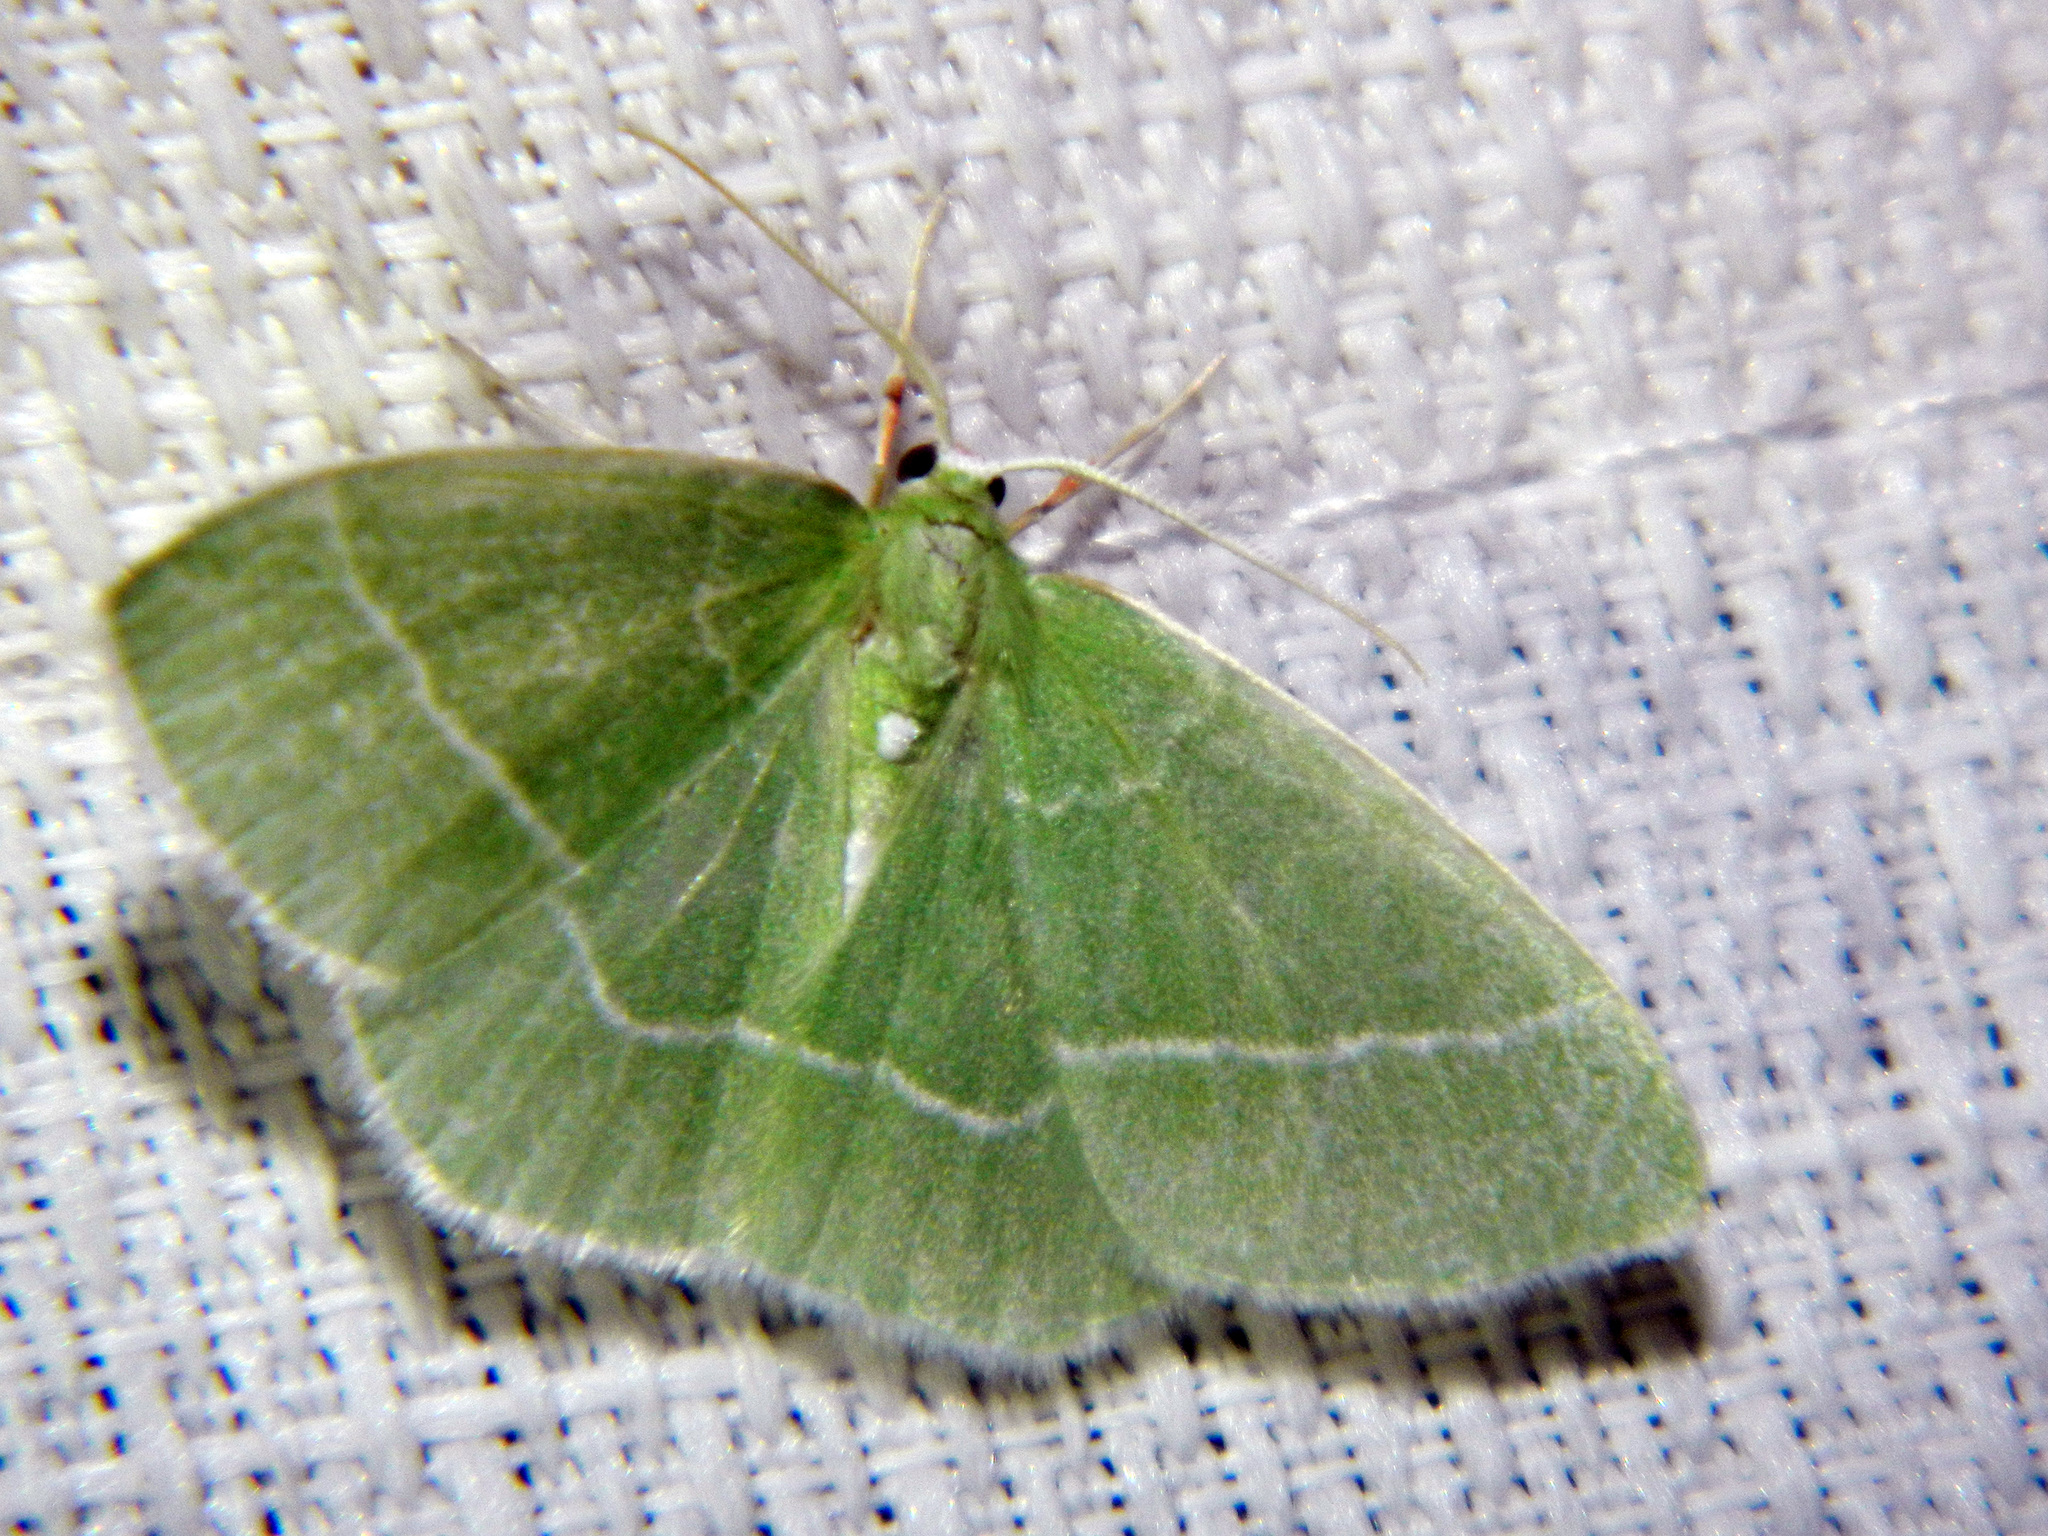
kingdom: Animalia
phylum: Arthropoda
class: Insecta
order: Lepidoptera
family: Geometridae
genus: Nemoria
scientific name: Nemoria mimosaria
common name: White-fringed emerald
